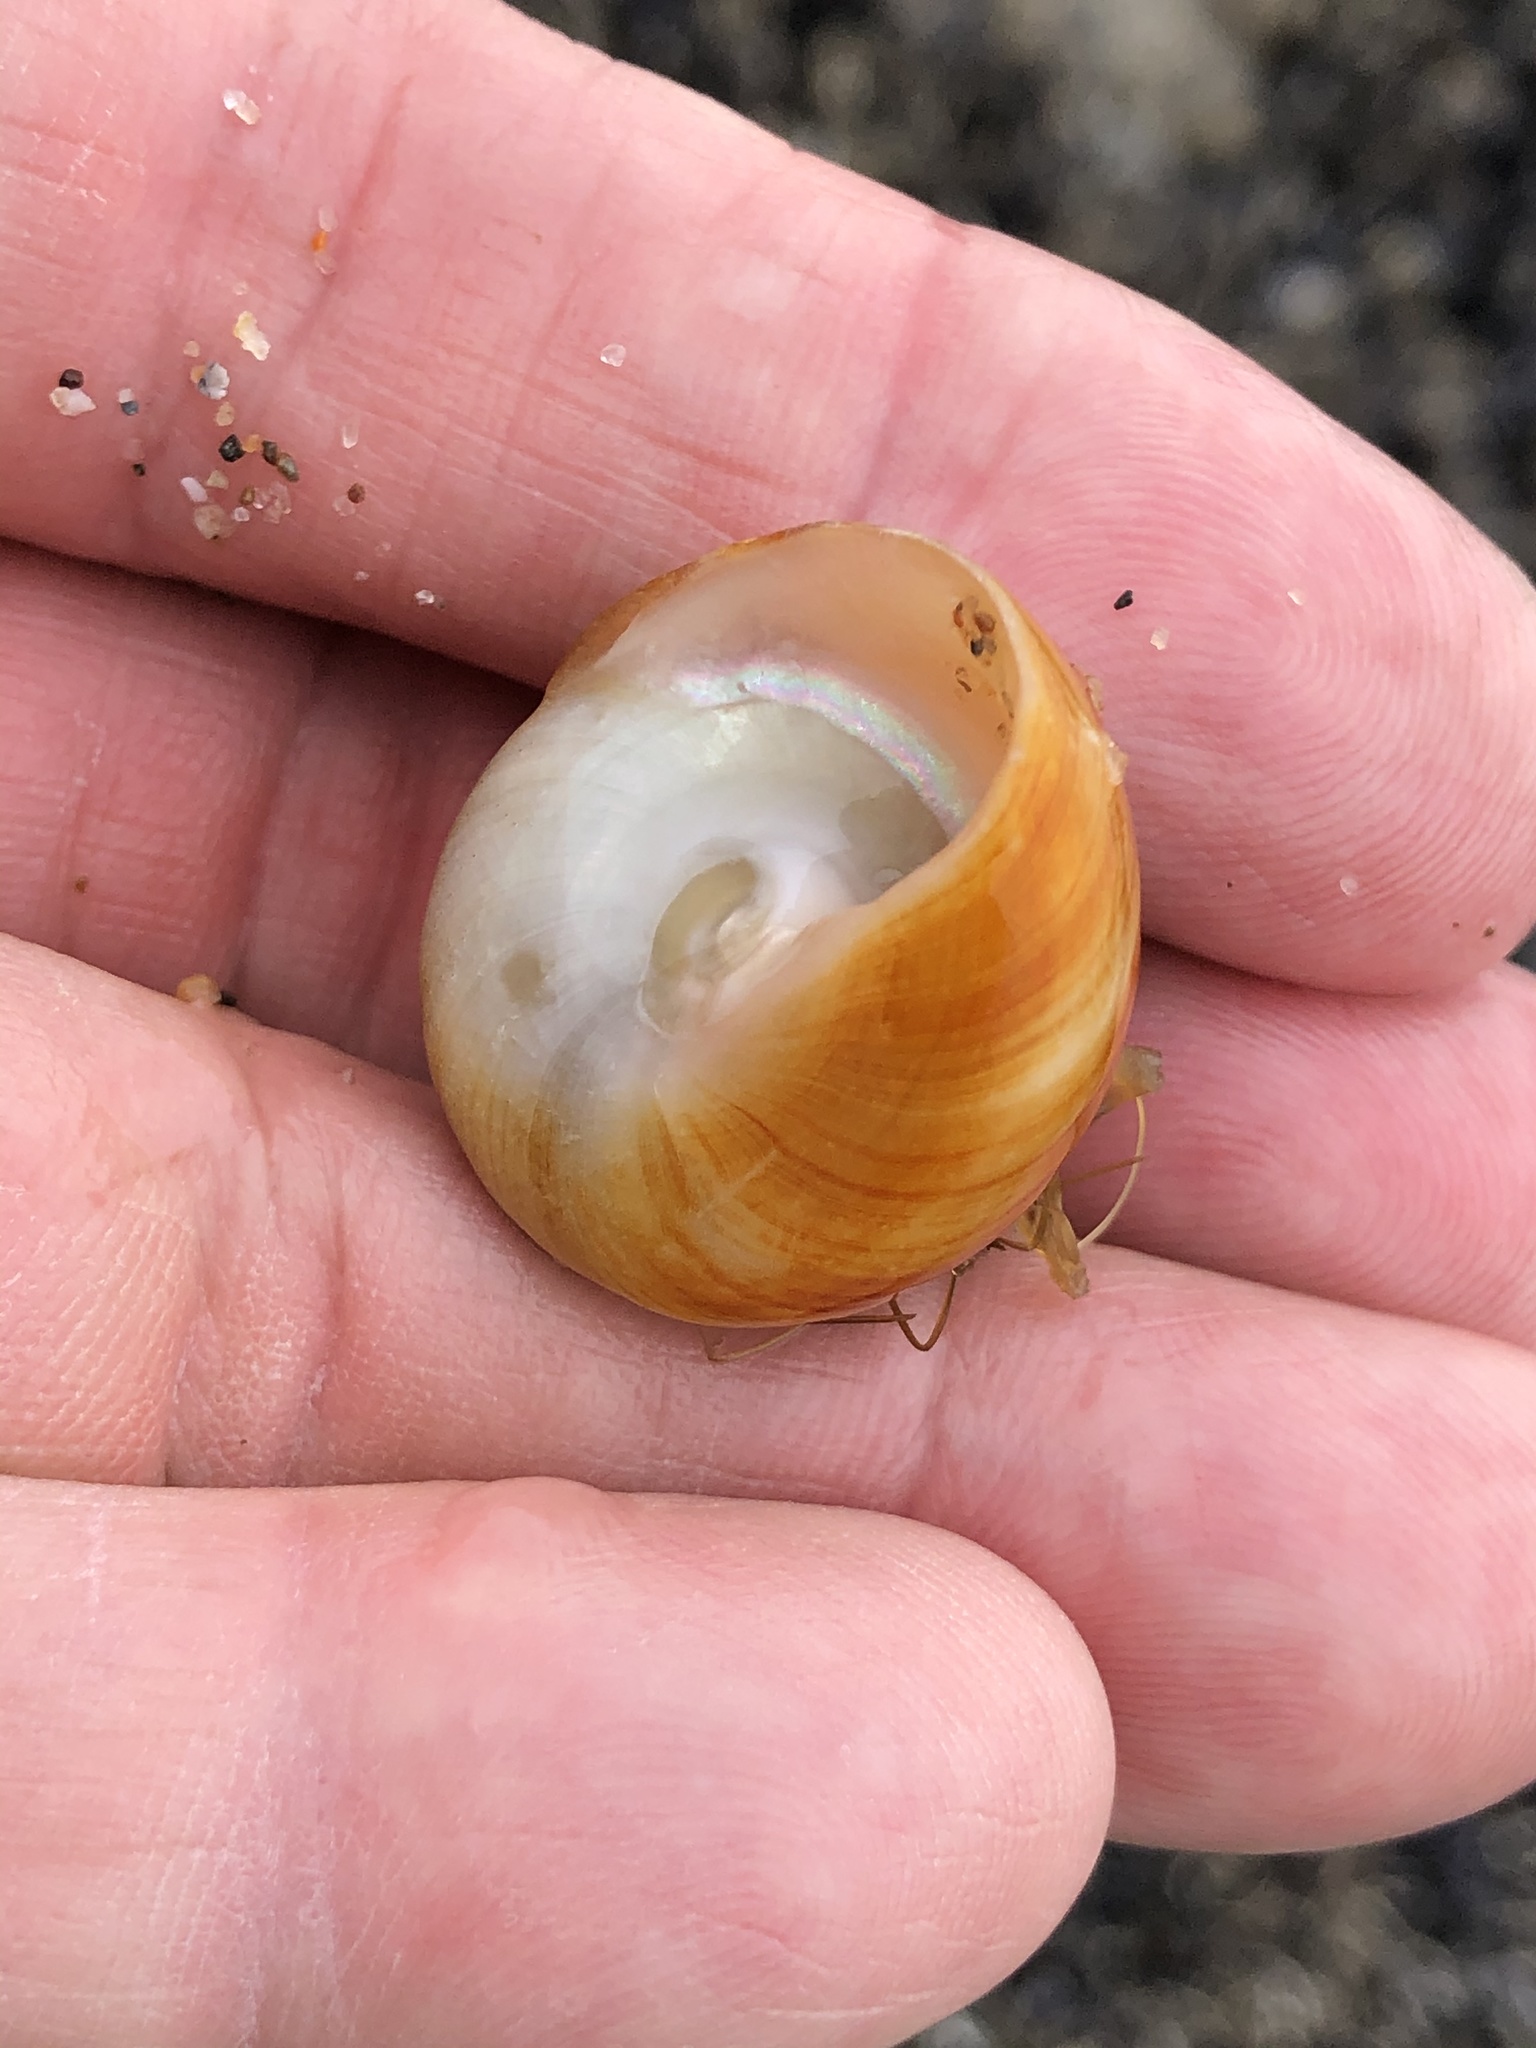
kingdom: Animalia
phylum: Mollusca
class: Gastropoda
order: Trochida
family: Tegulidae
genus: Tegula
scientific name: Tegula brunnea
